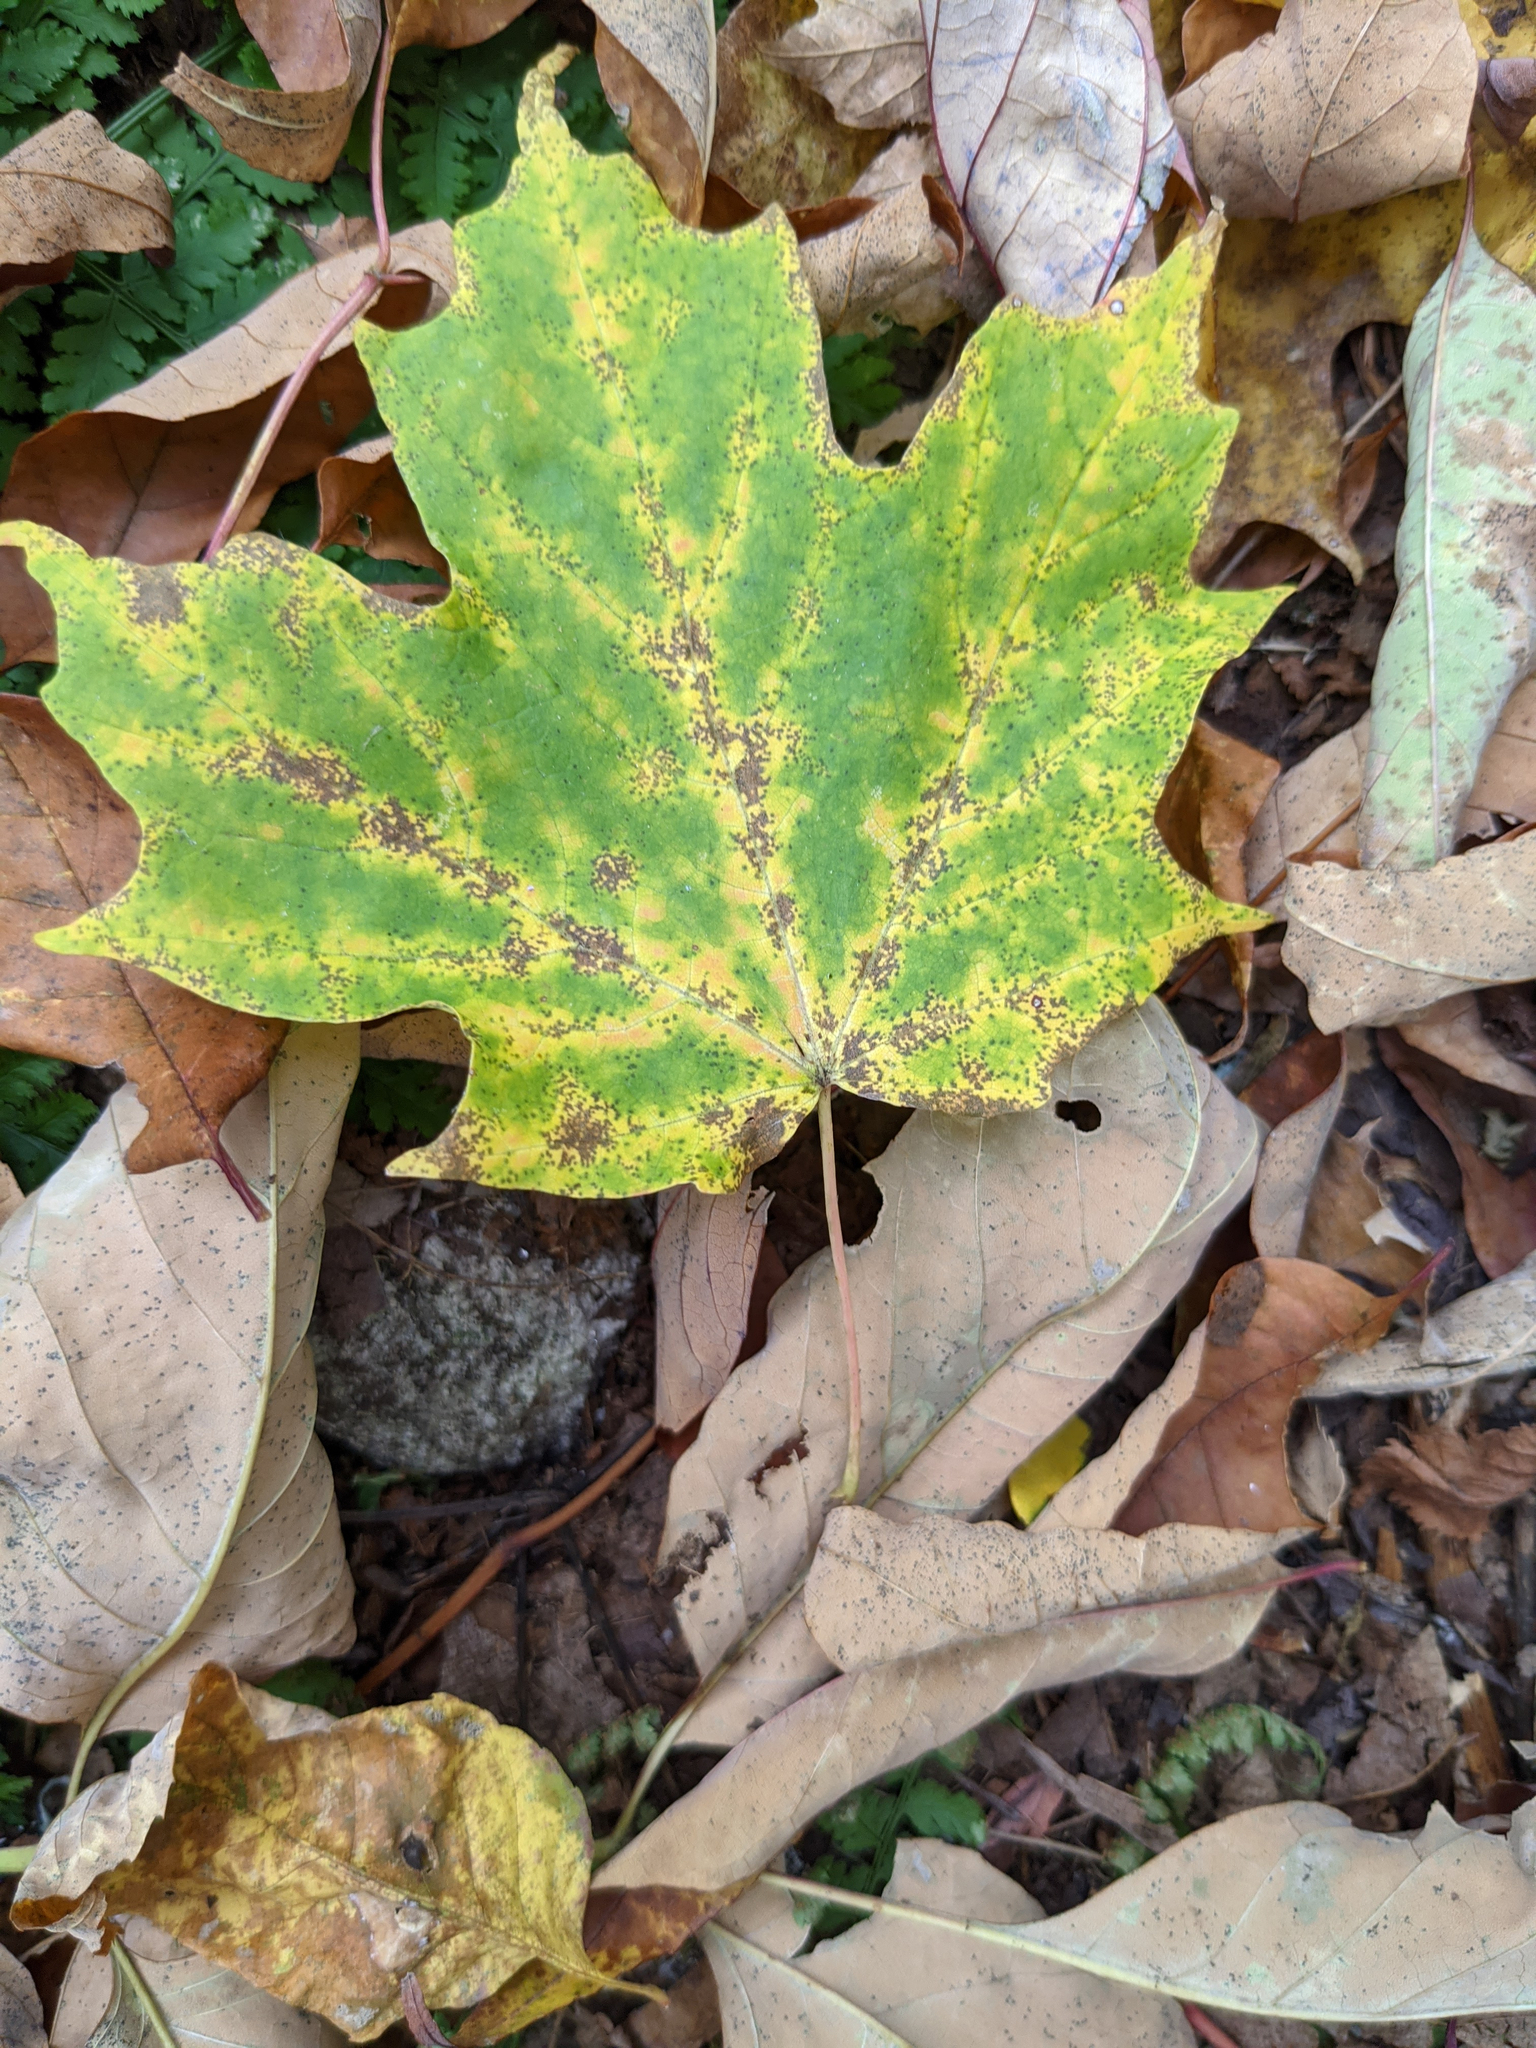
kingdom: Plantae
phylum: Tracheophyta
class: Magnoliopsida
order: Sapindales
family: Sapindaceae
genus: Acer
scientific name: Acer saccharum
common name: Sugar maple
